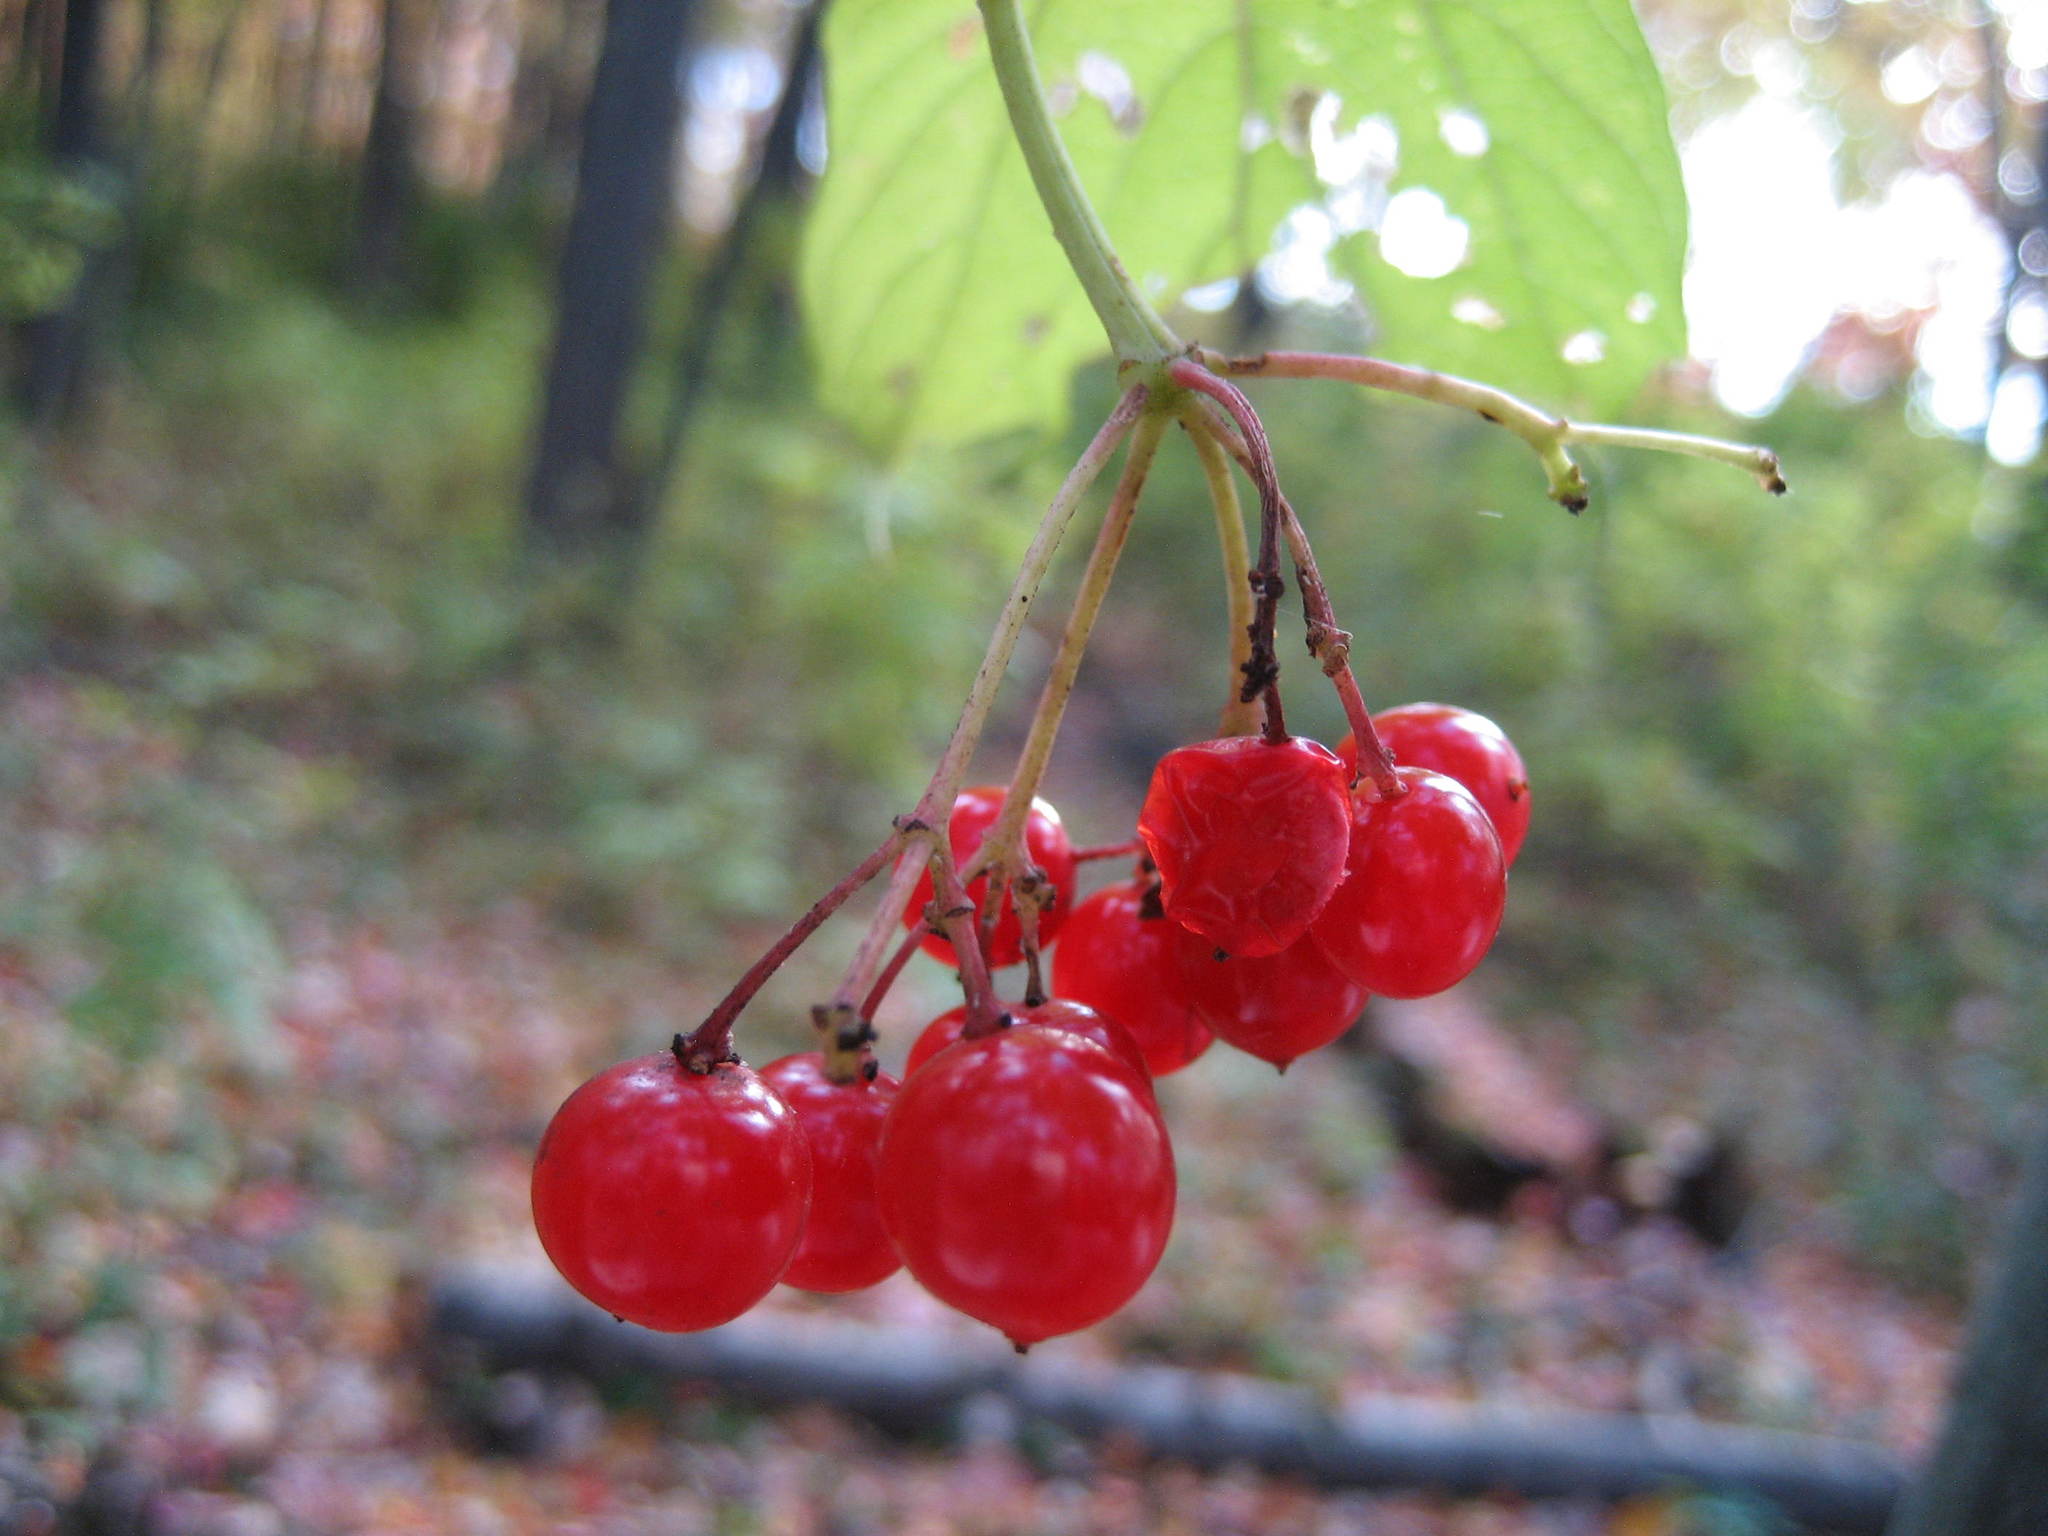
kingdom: Plantae
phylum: Tracheophyta
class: Magnoliopsida
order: Dipsacales
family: Viburnaceae
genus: Viburnum
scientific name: Viburnum opulus
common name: Guelder-rose
